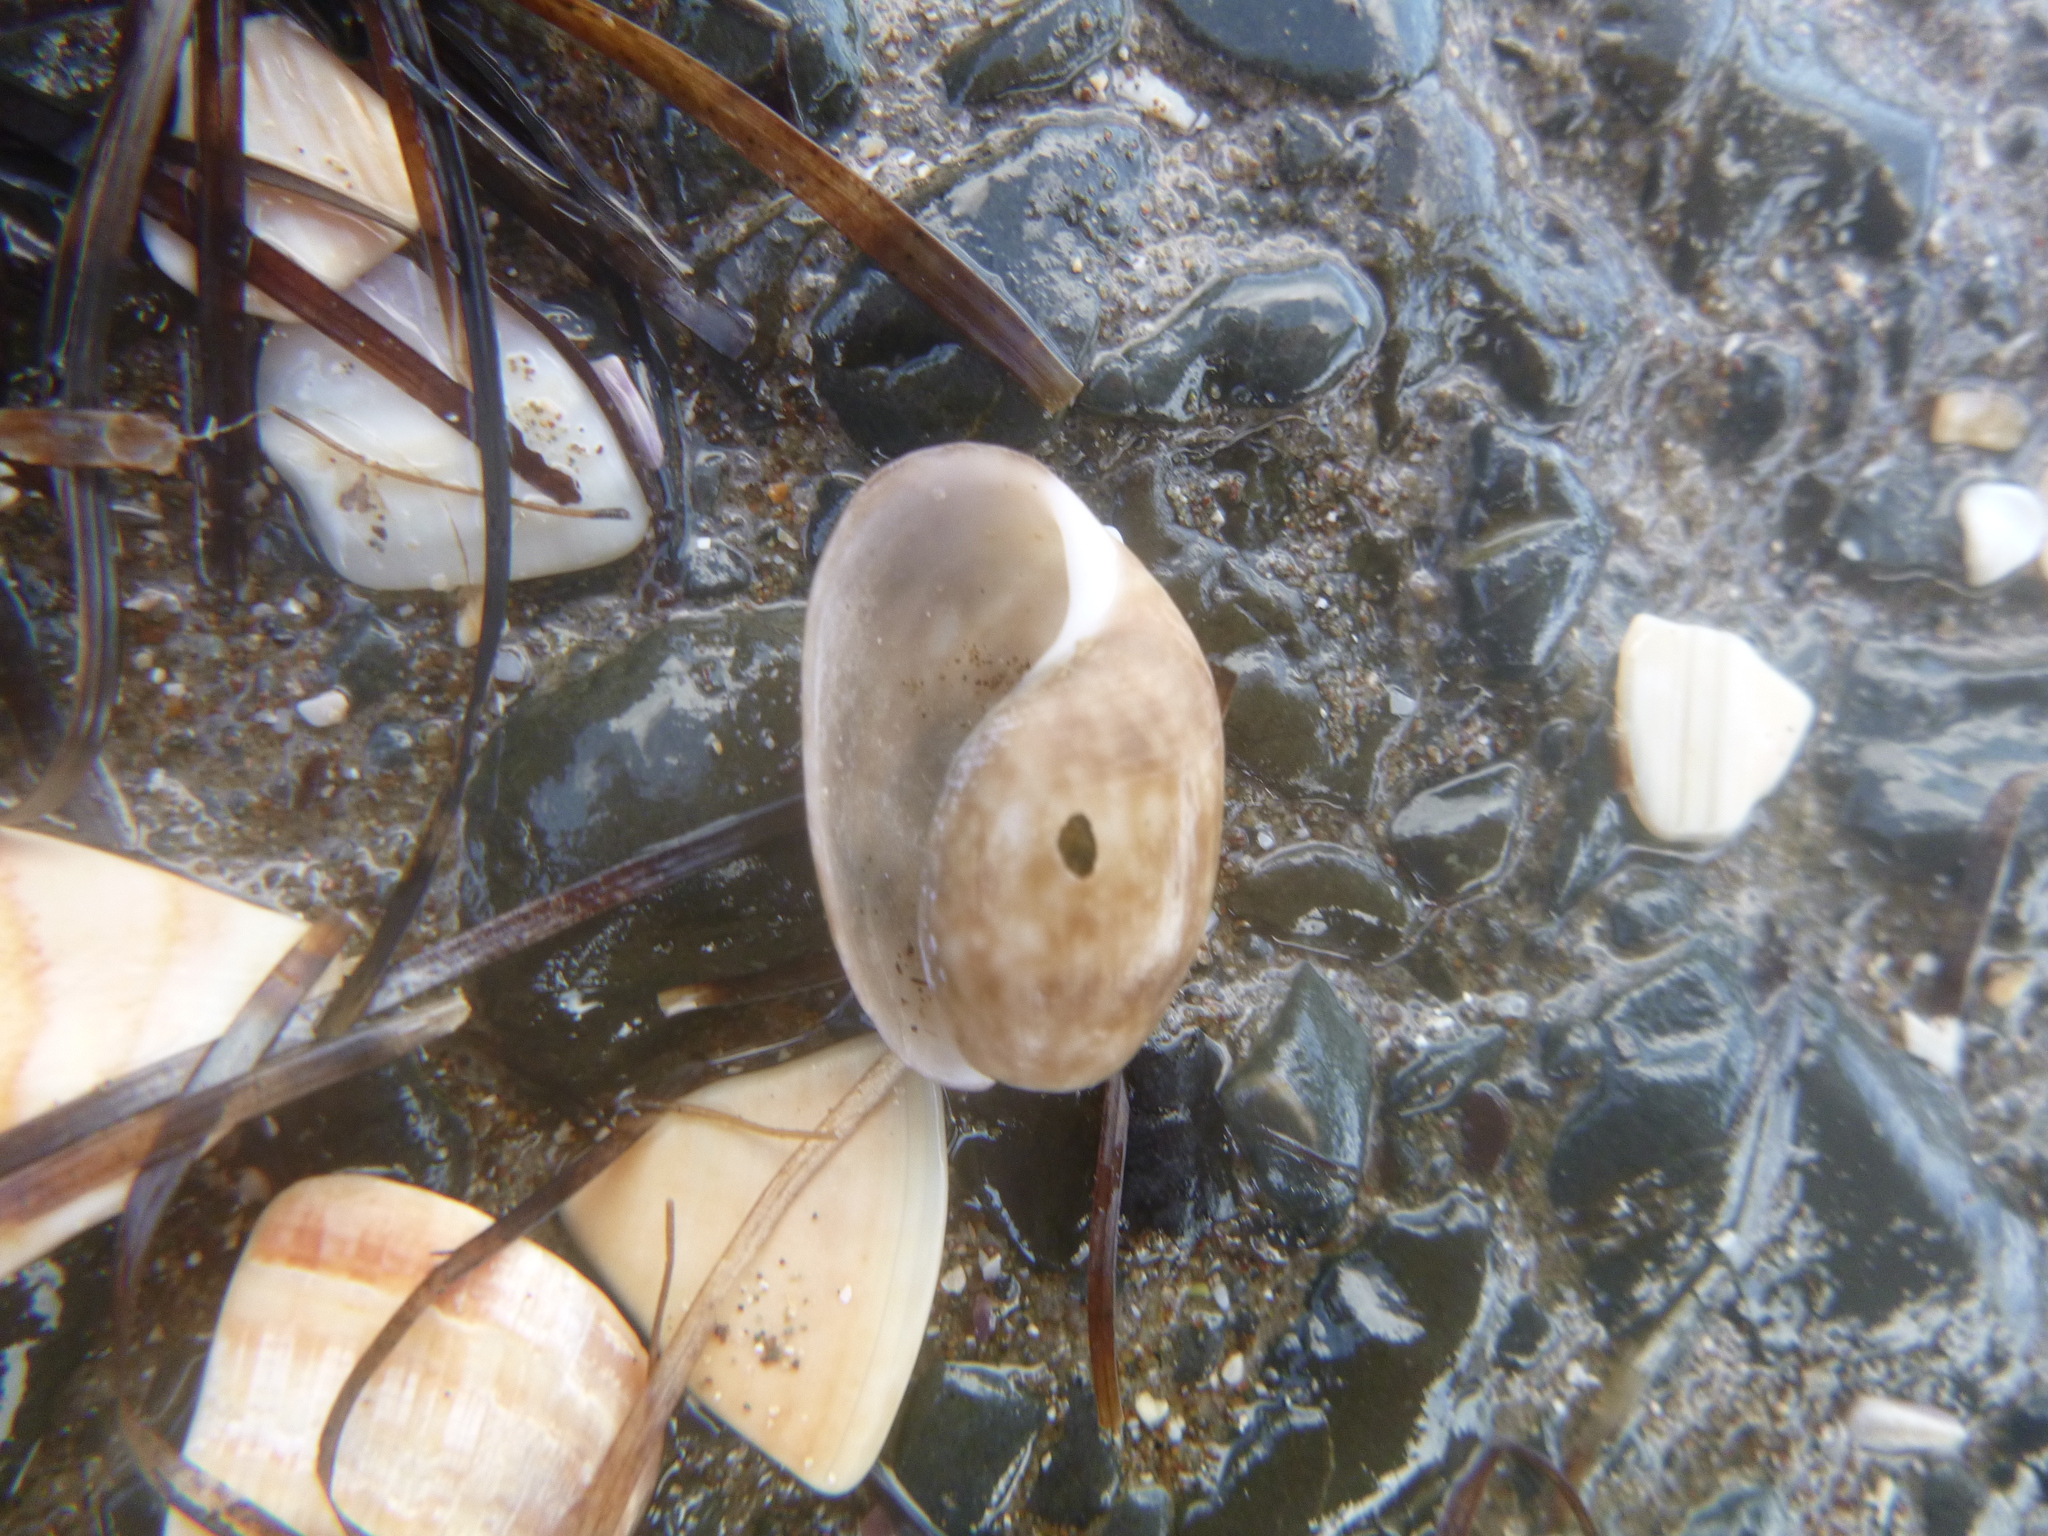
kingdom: Animalia
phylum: Mollusca
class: Gastropoda
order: Cephalaspidea
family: Bullidae
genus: Bulla
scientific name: Bulla quoyii
